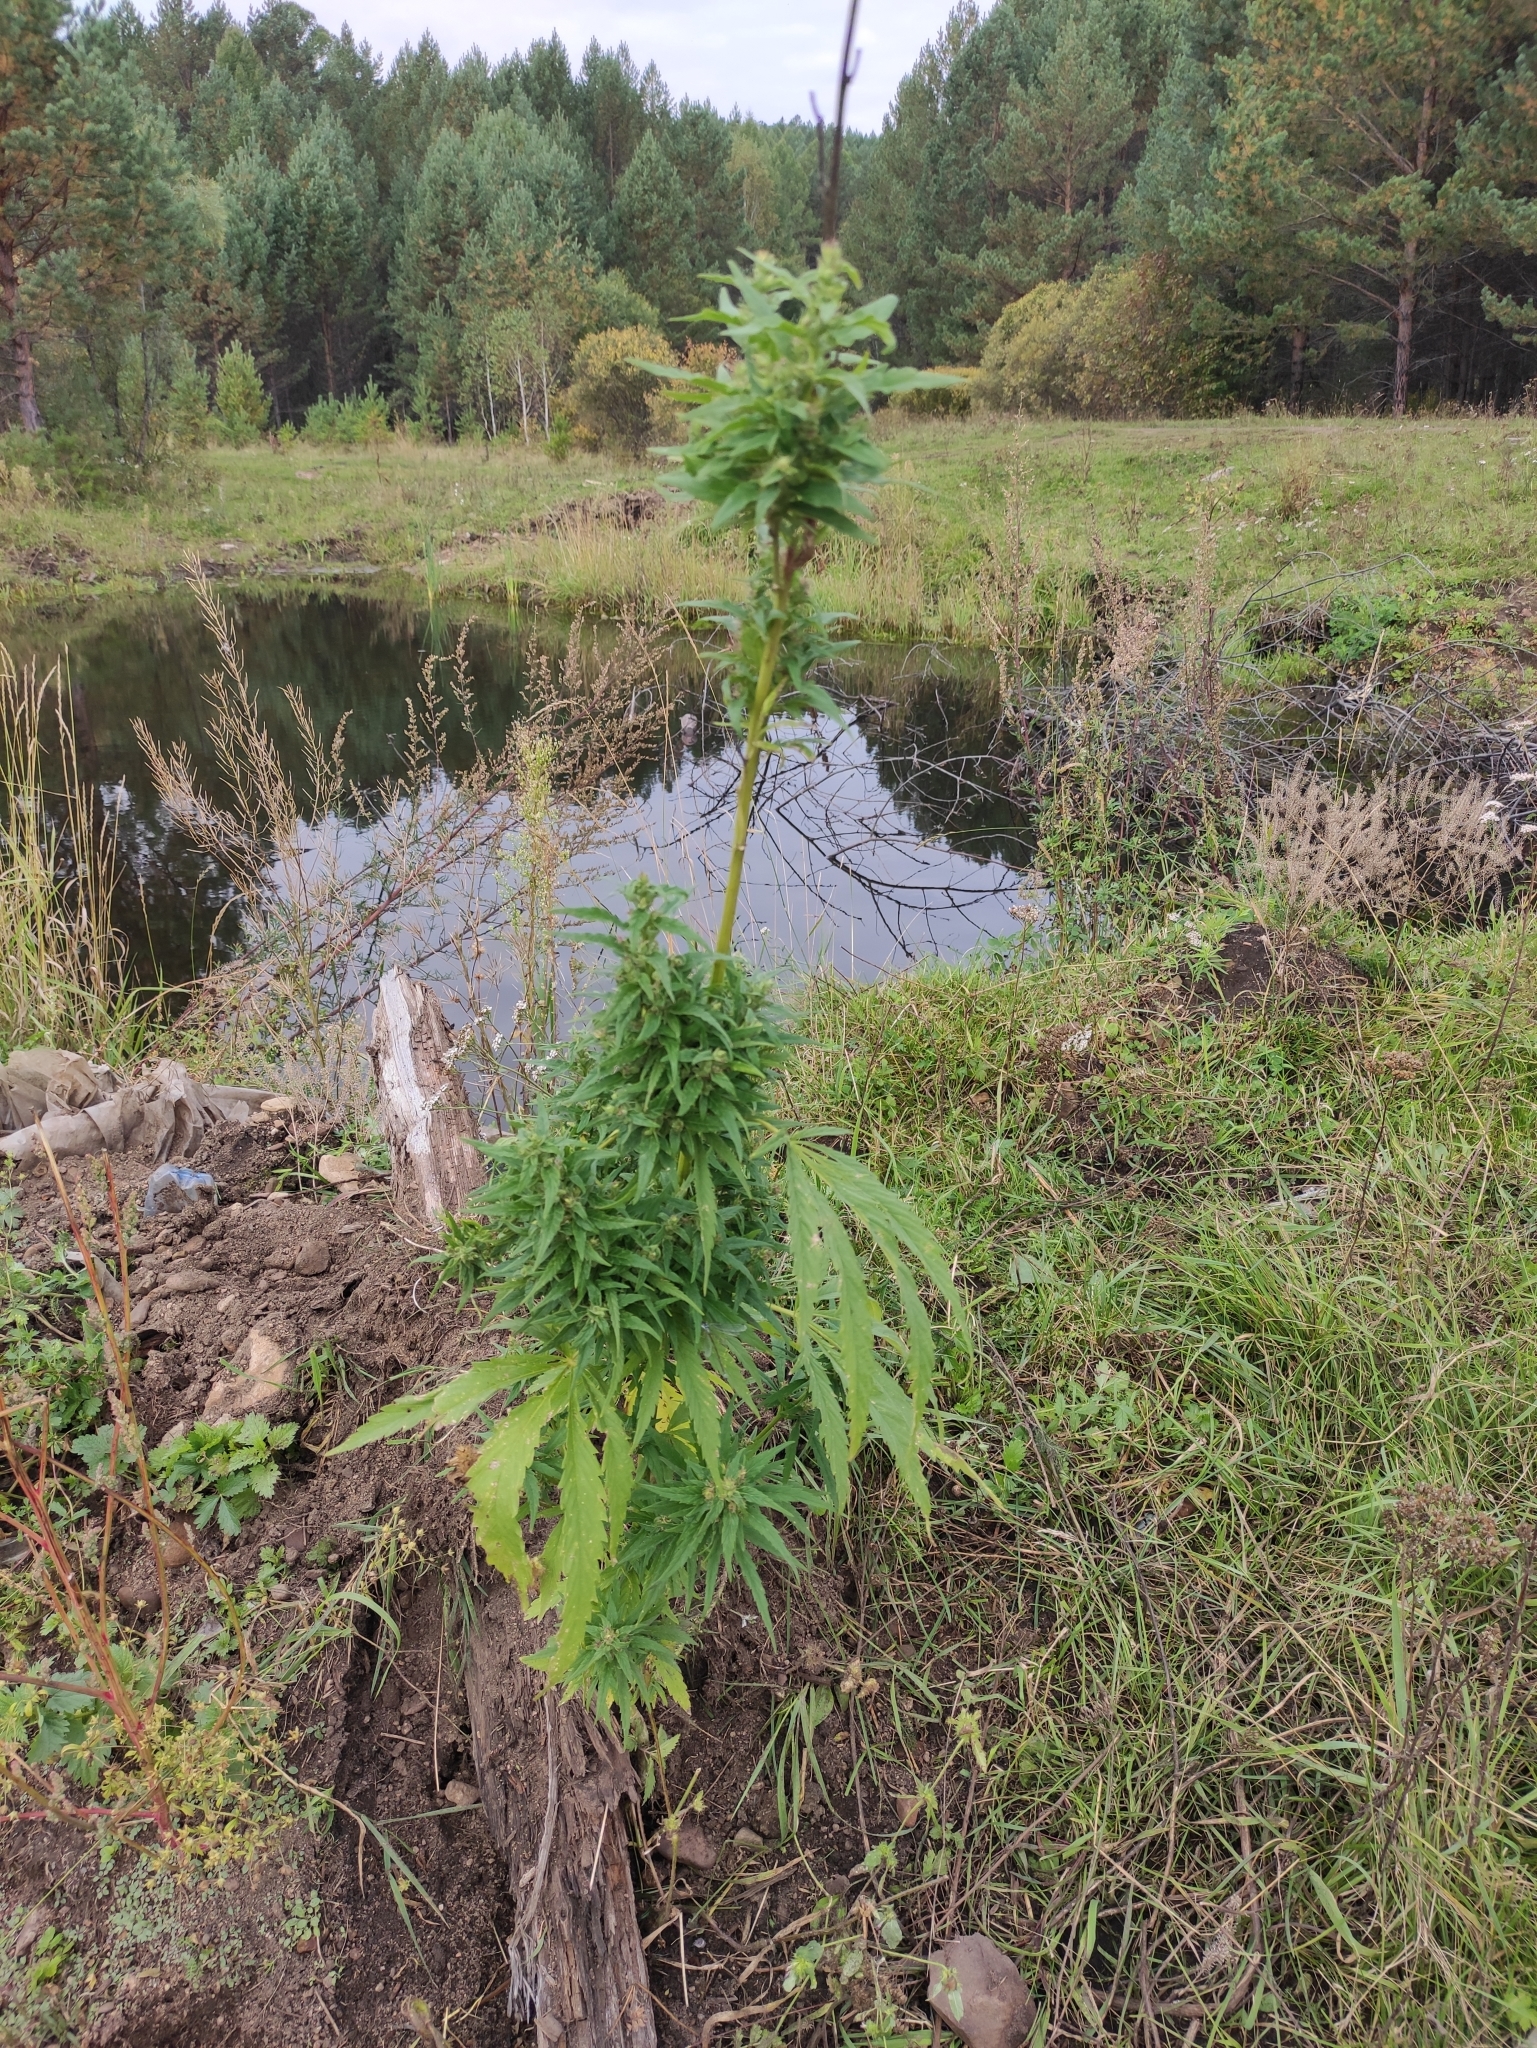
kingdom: Plantae
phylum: Tracheophyta
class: Magnoliopsida
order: Rosales
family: Cannabaceae
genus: Cannabis
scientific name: Cannabis sativa
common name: Hemp
